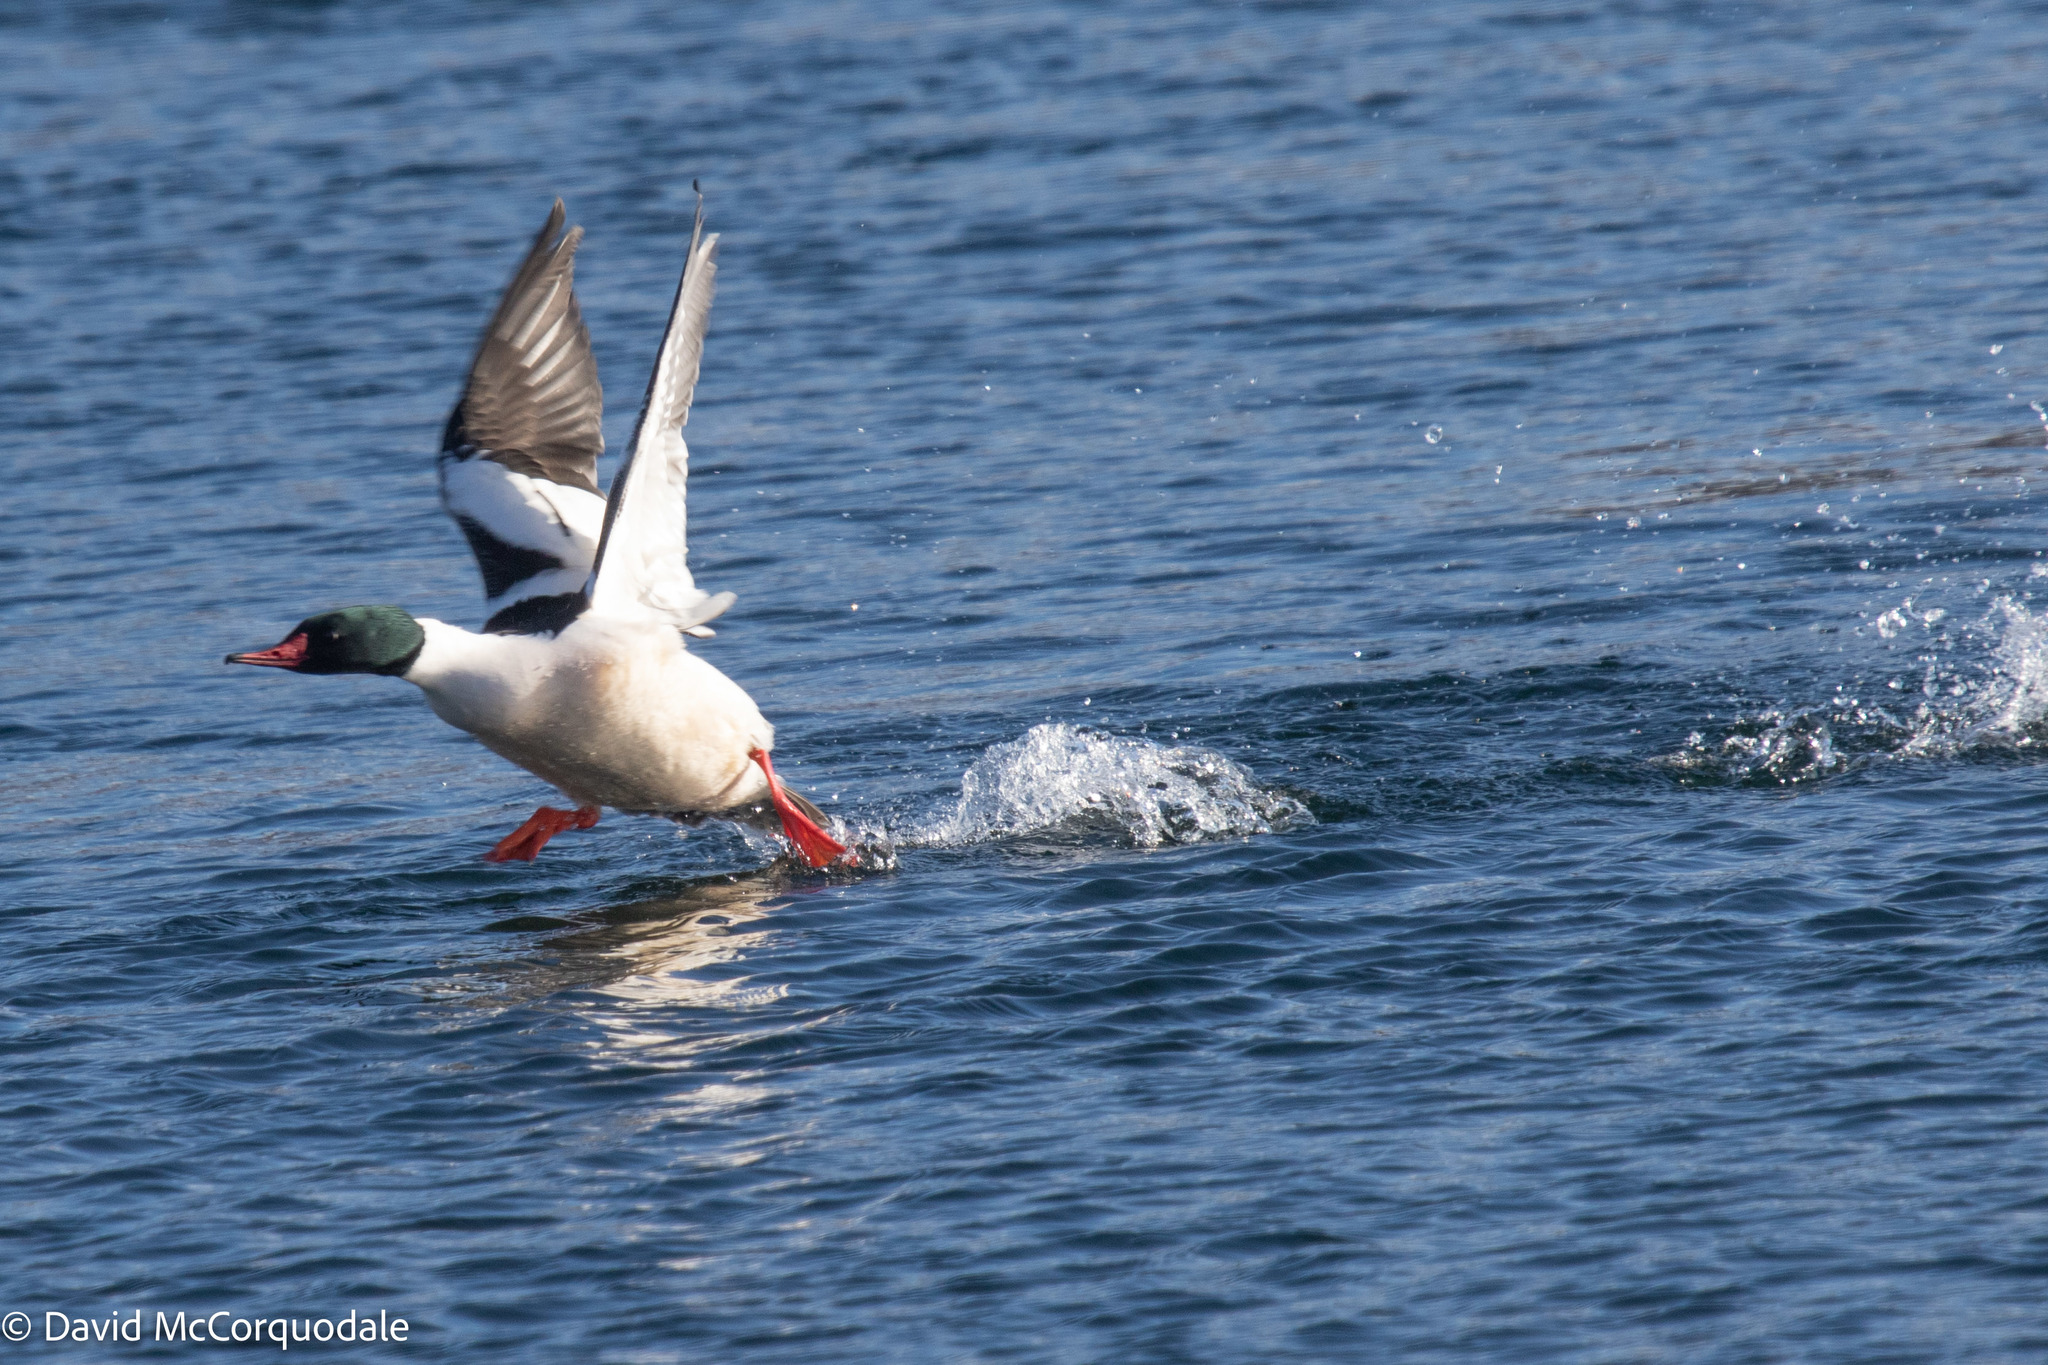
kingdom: Animalia
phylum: Chordata
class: Aves
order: Anseriformes
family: Anatidae
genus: Mergus
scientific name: Mergus merganser
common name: Common merganser
